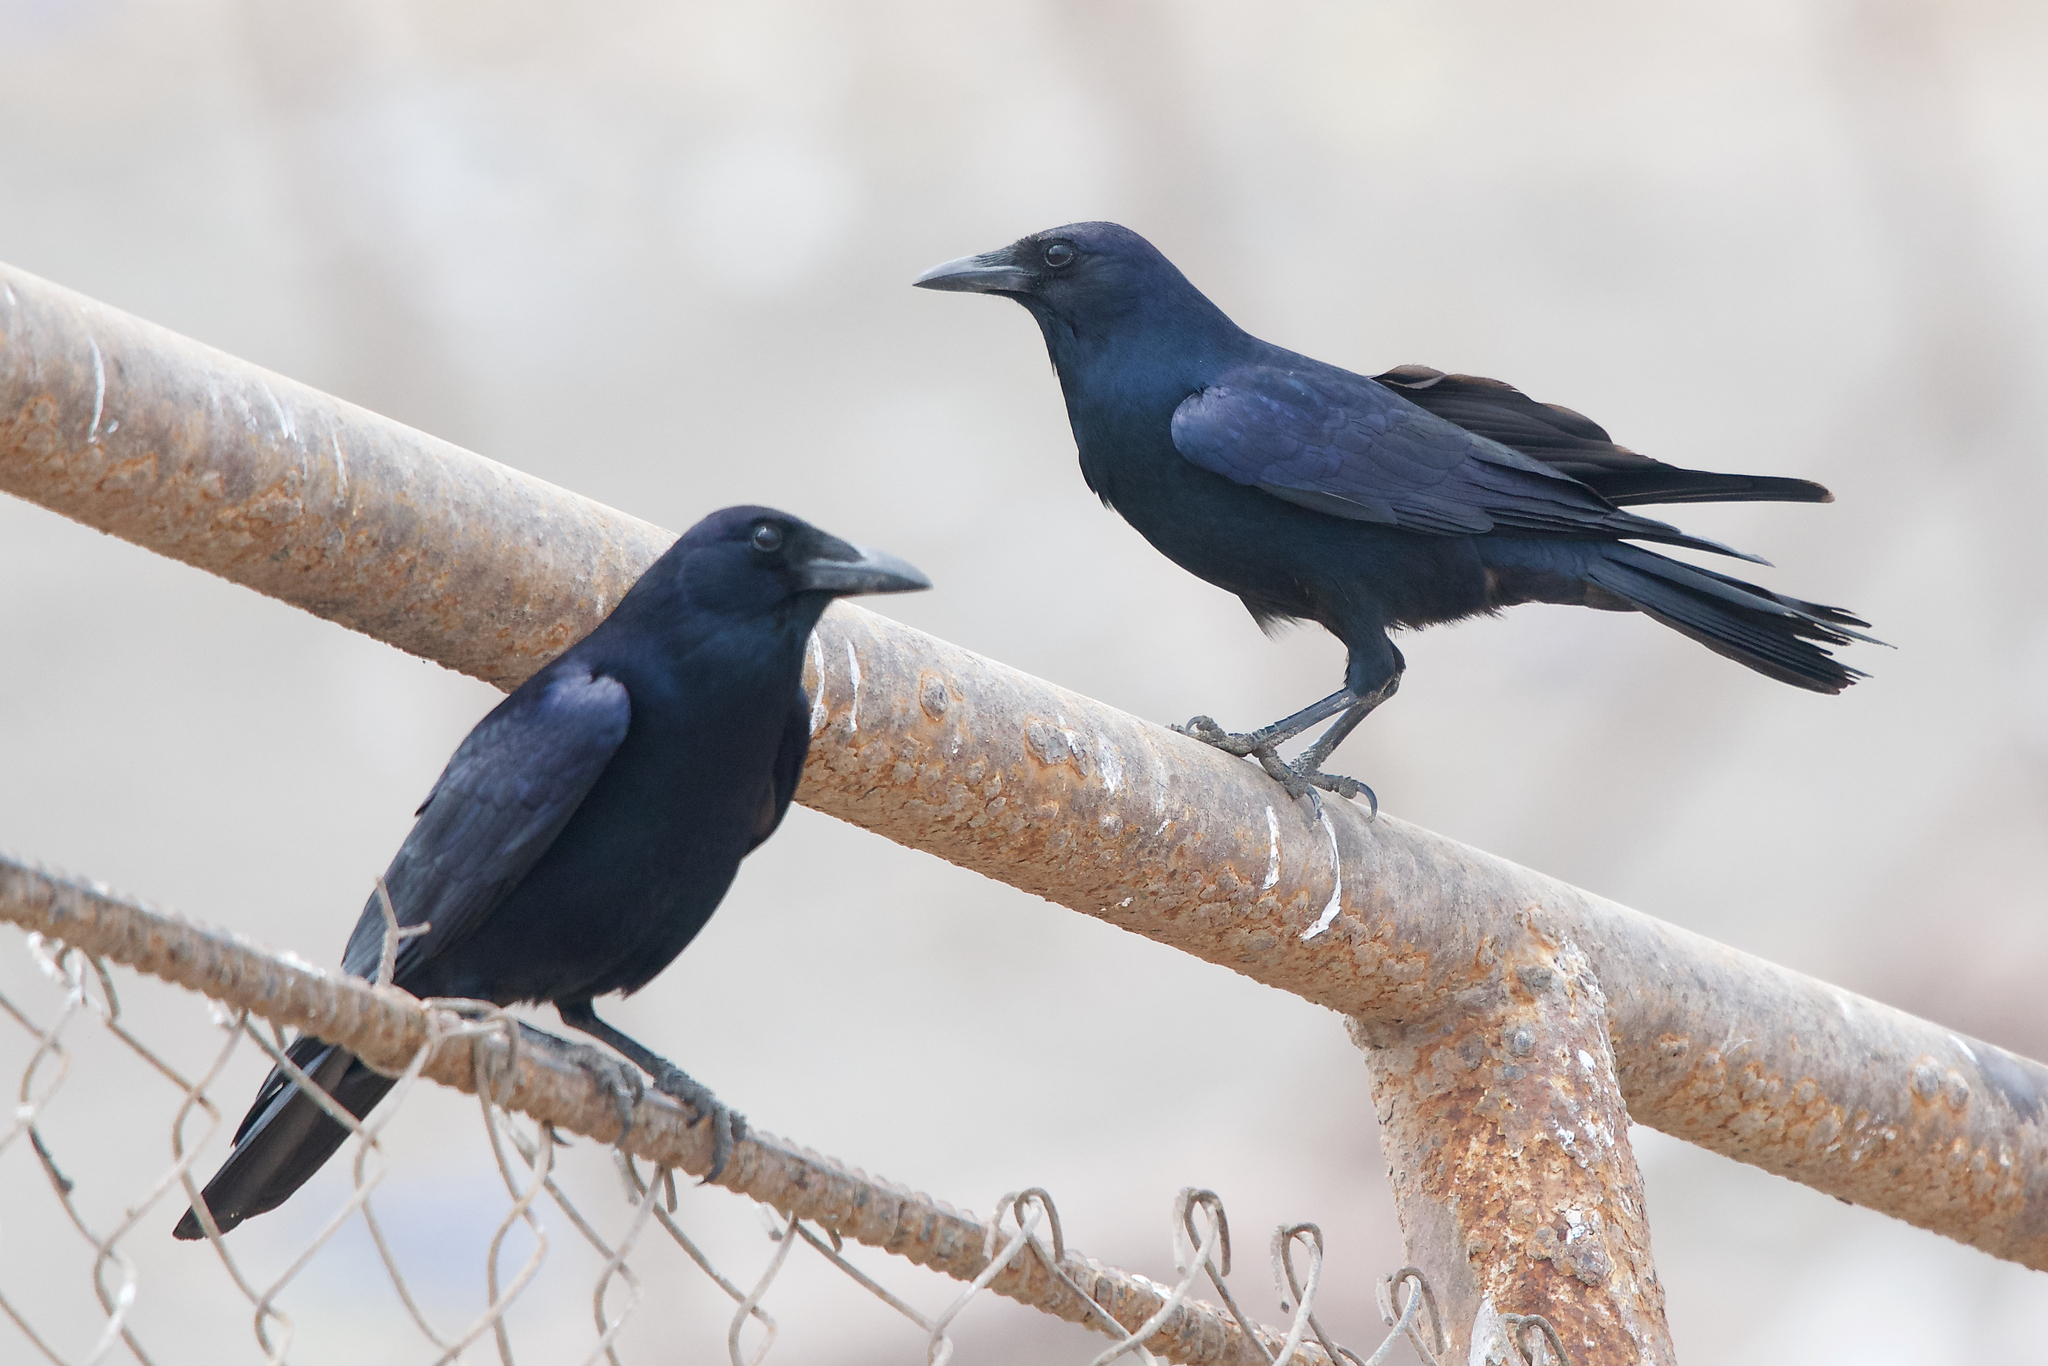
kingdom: Animalia
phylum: Chordata
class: Aves
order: Passeriformes
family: Corvidae
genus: Corvus
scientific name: Corvus imparatus
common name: Tamaulipas crow
